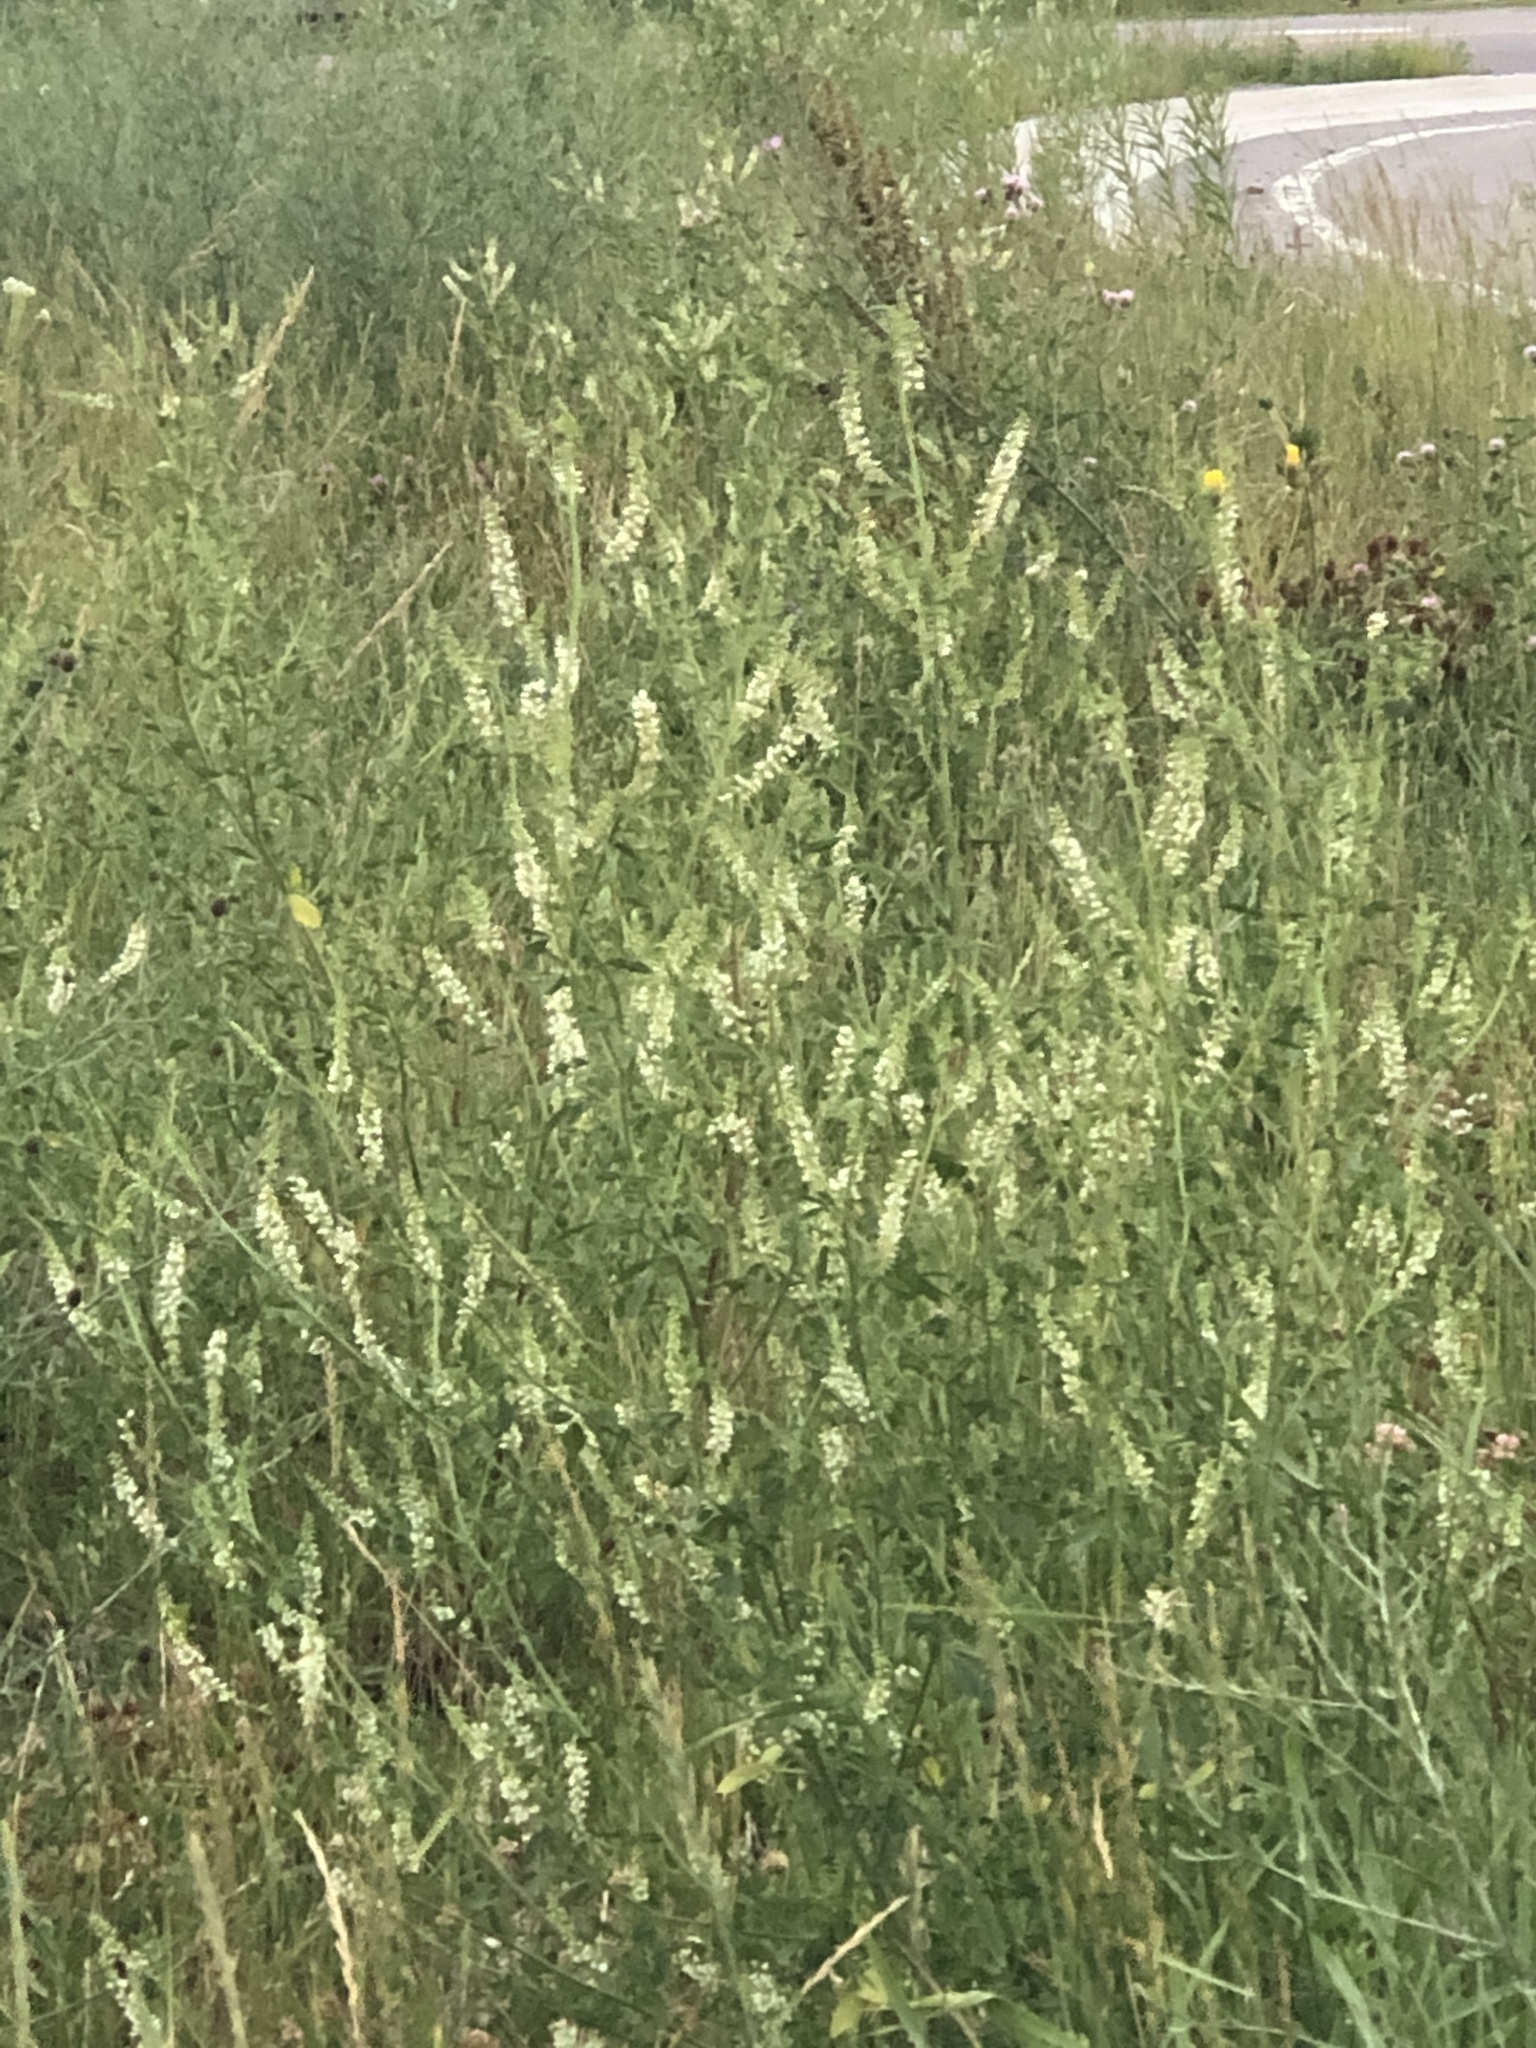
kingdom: Plantae
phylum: Tracheophyta
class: Magnoliopsida
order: Fabales
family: Fabaceae
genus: Melilotus
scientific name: Melilotus albus
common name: White melilot
